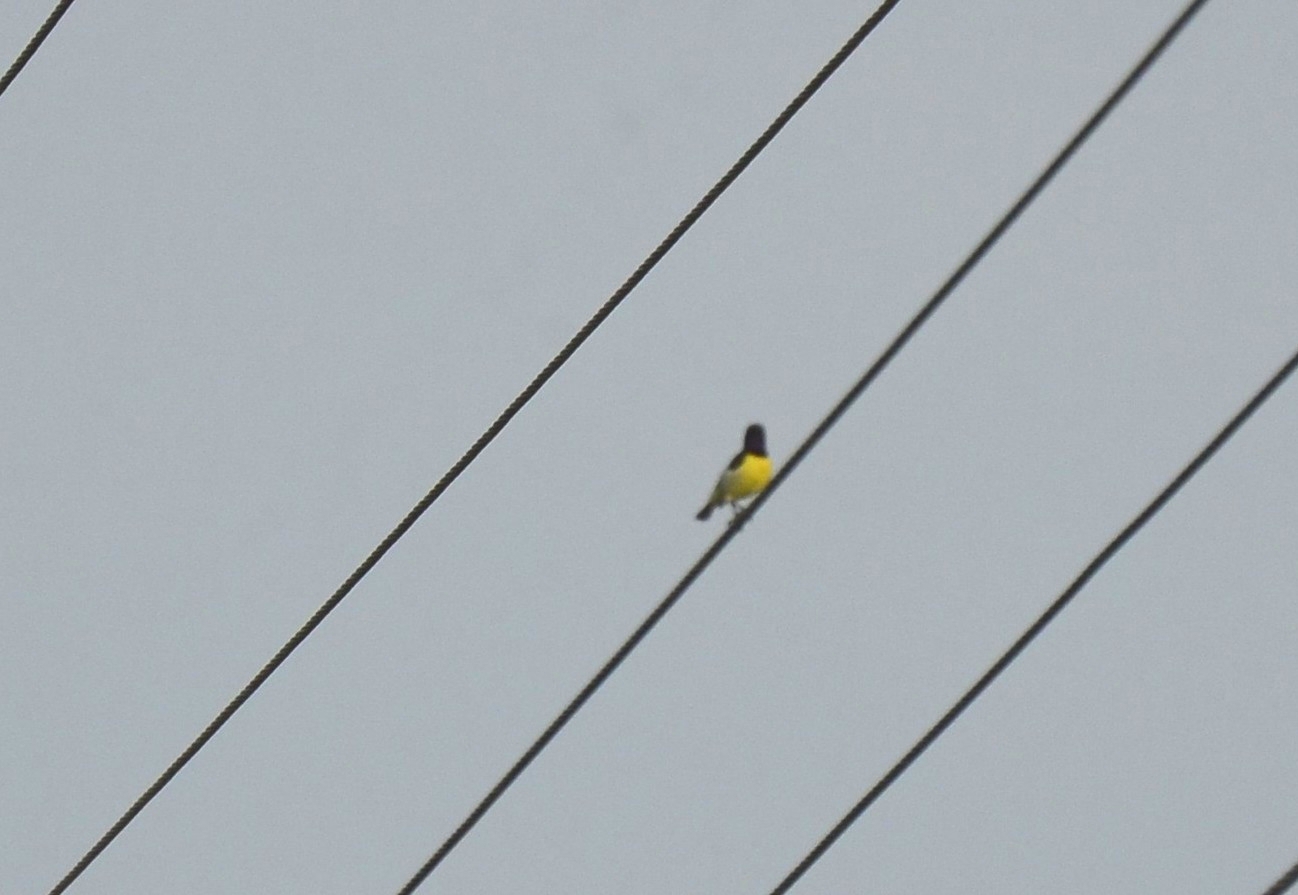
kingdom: Animalia
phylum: Chordata
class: Aves
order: Passeriformes
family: Nectariniidae
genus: Leptocoma
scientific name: Leptocoma zeylonica
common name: Purple-rumped sunbird
